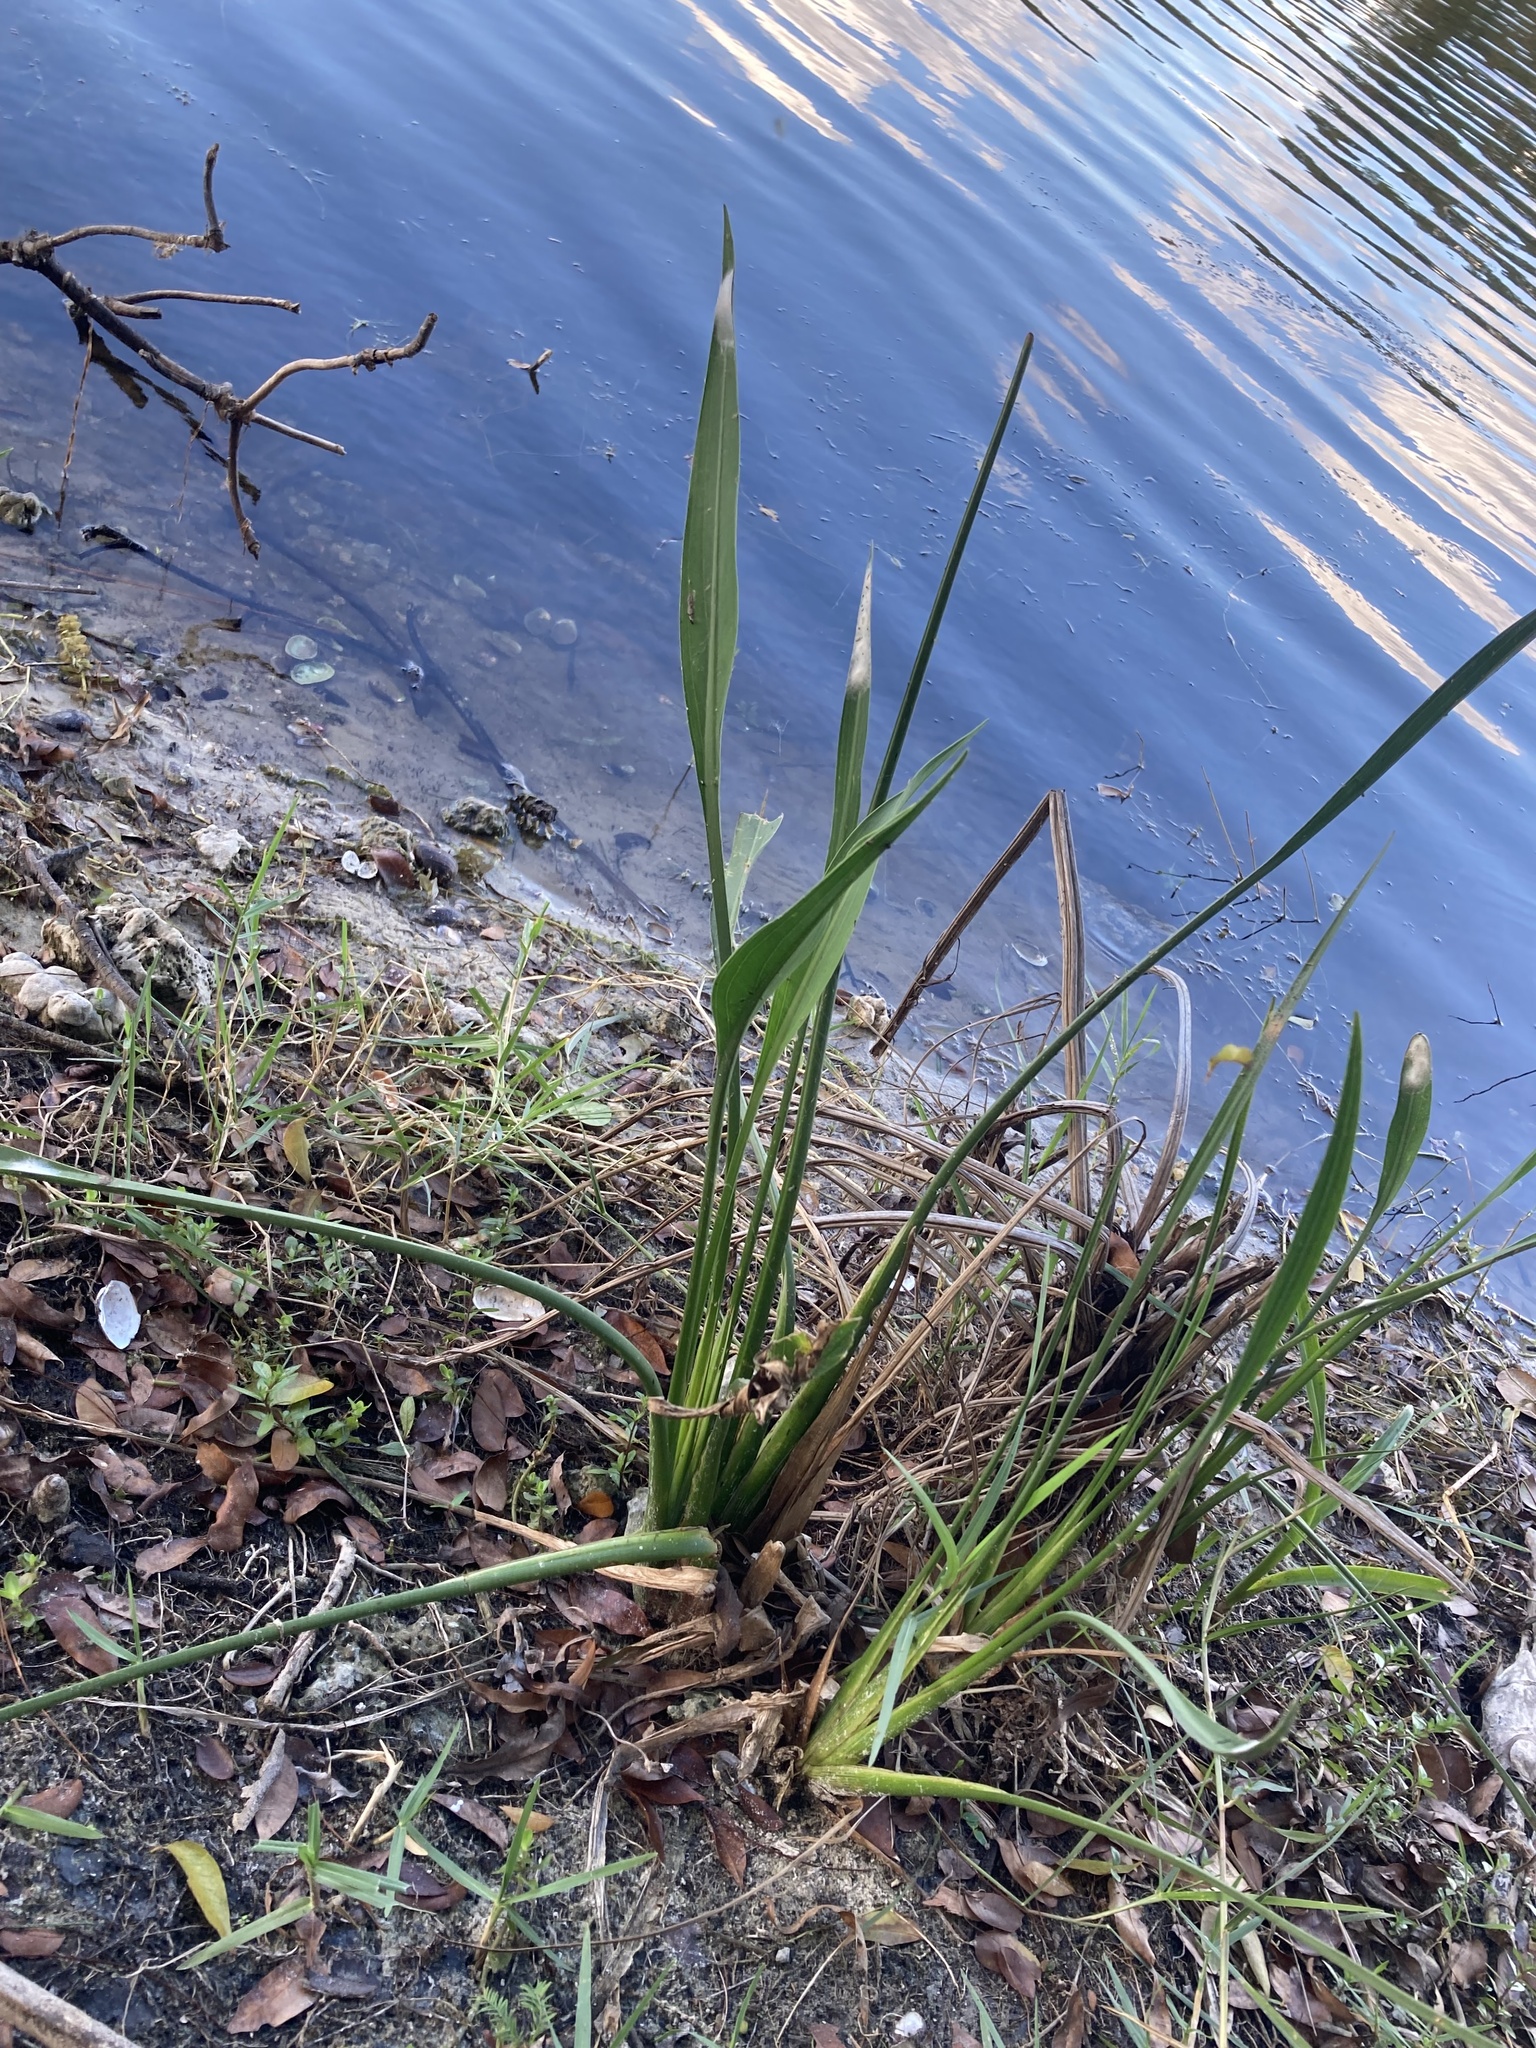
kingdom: Plantae
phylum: Tracheophyta
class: Liliopsida
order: Alismatales
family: Alismataceae
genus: Sagittaria
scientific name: Sagittaria lancifolia
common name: Lance-leaf arrowhead
